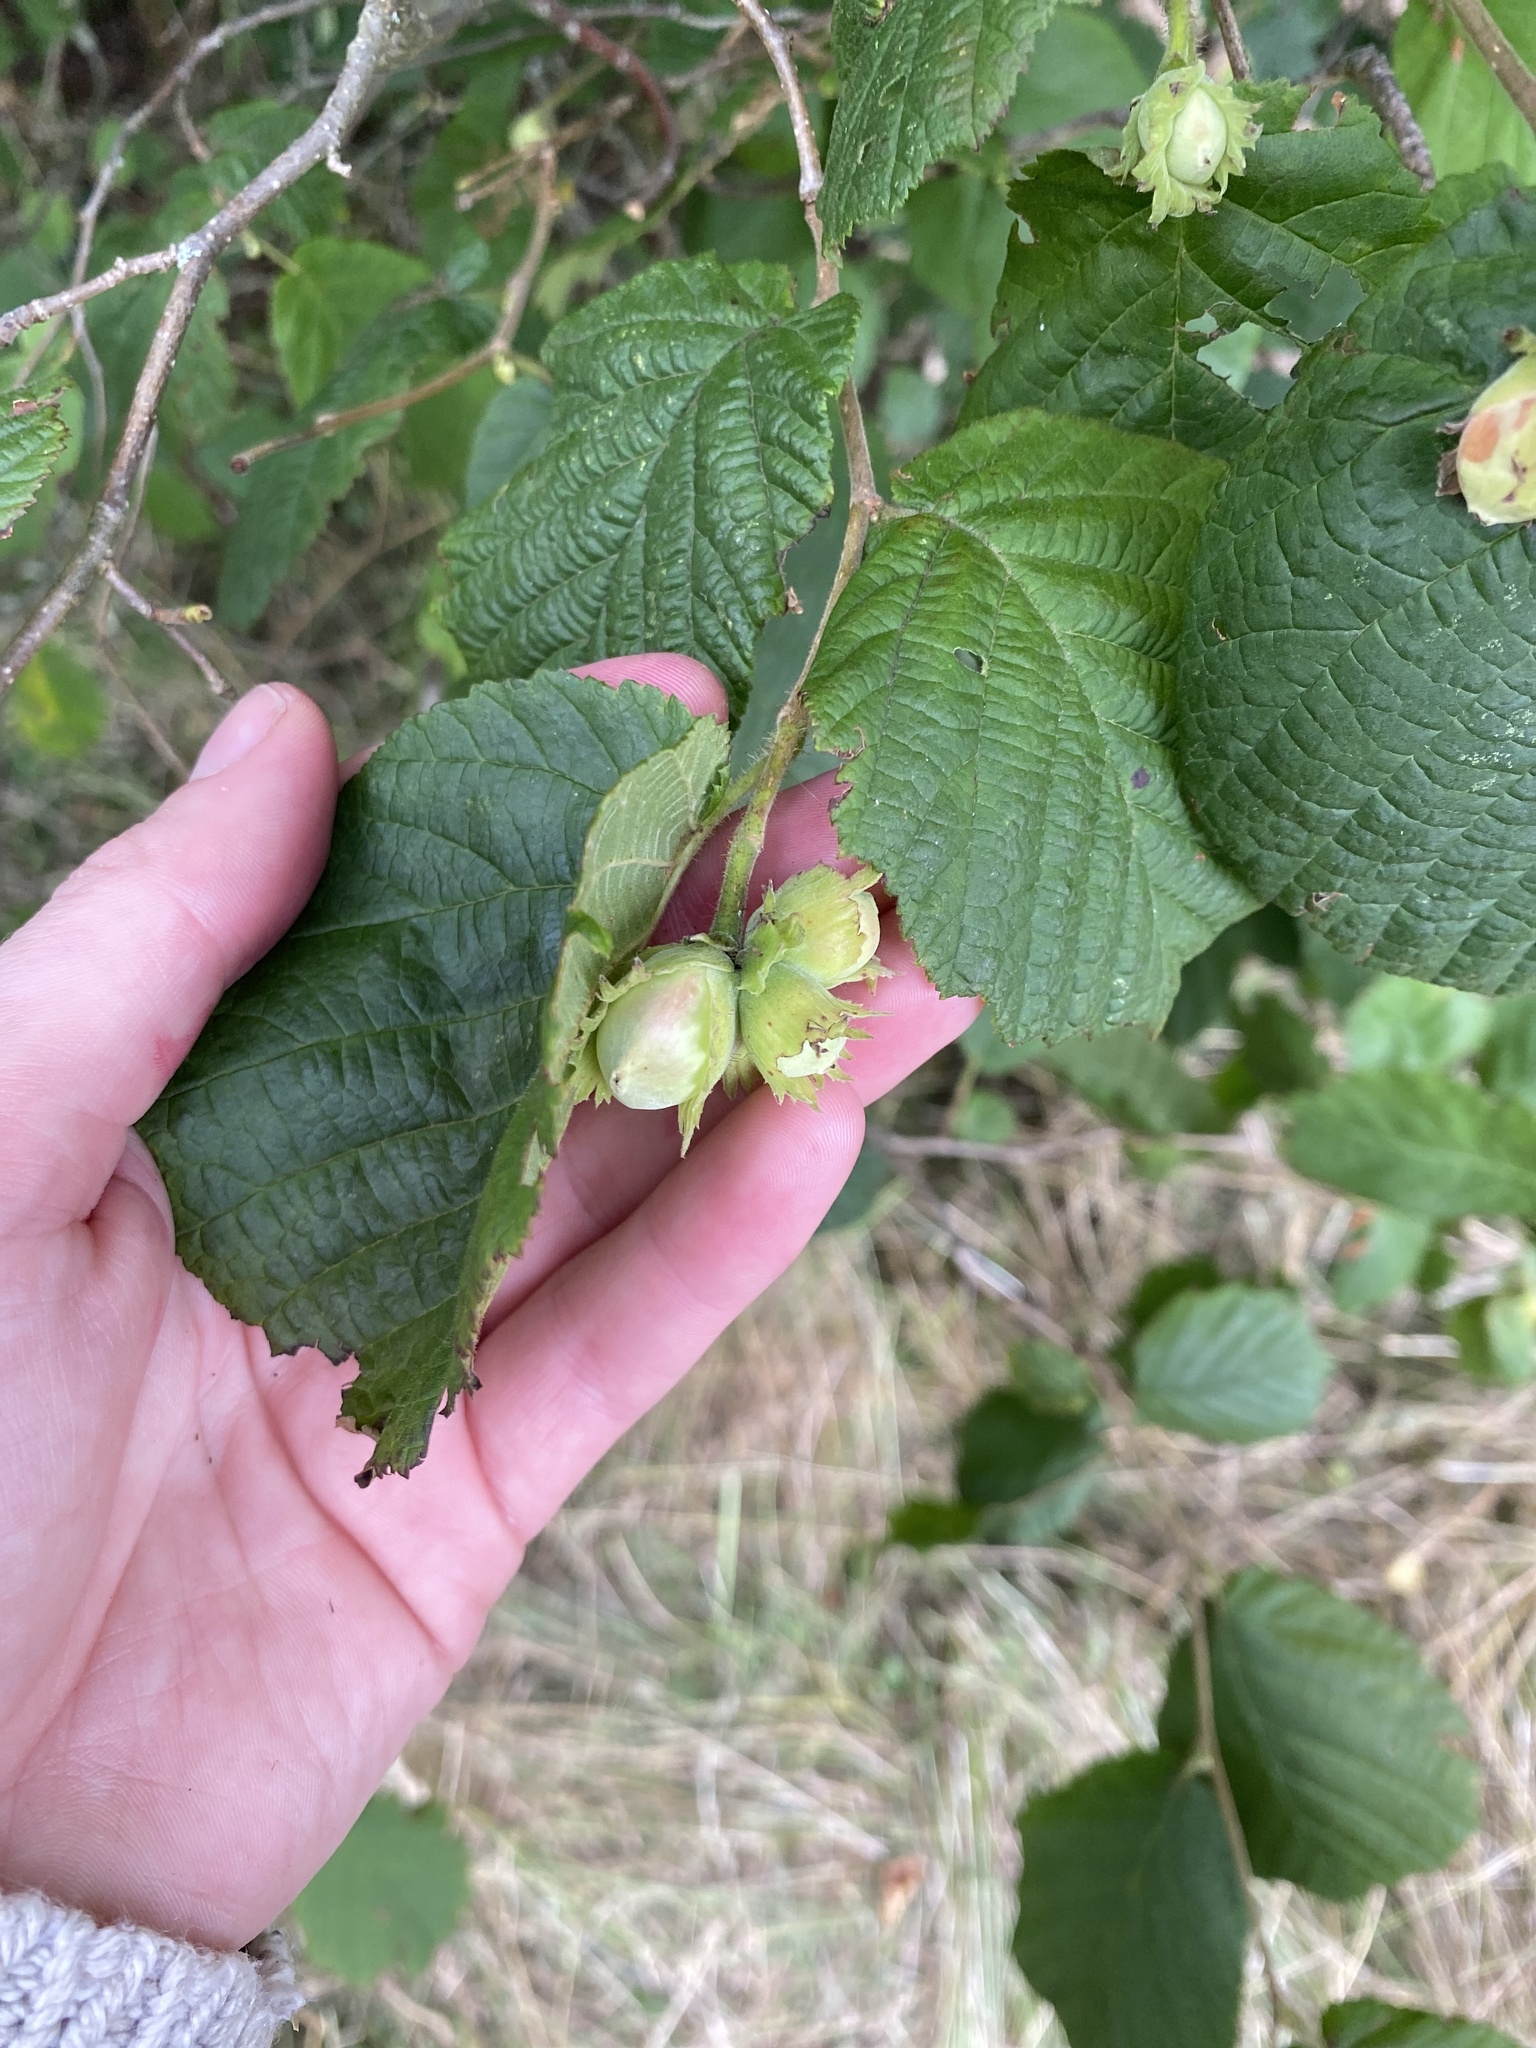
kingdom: Plantae
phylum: Tracheophyta
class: Magnoliopsida
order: Fagales
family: Betulaceae
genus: Corylus
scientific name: Corylus avellana
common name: European hazel
